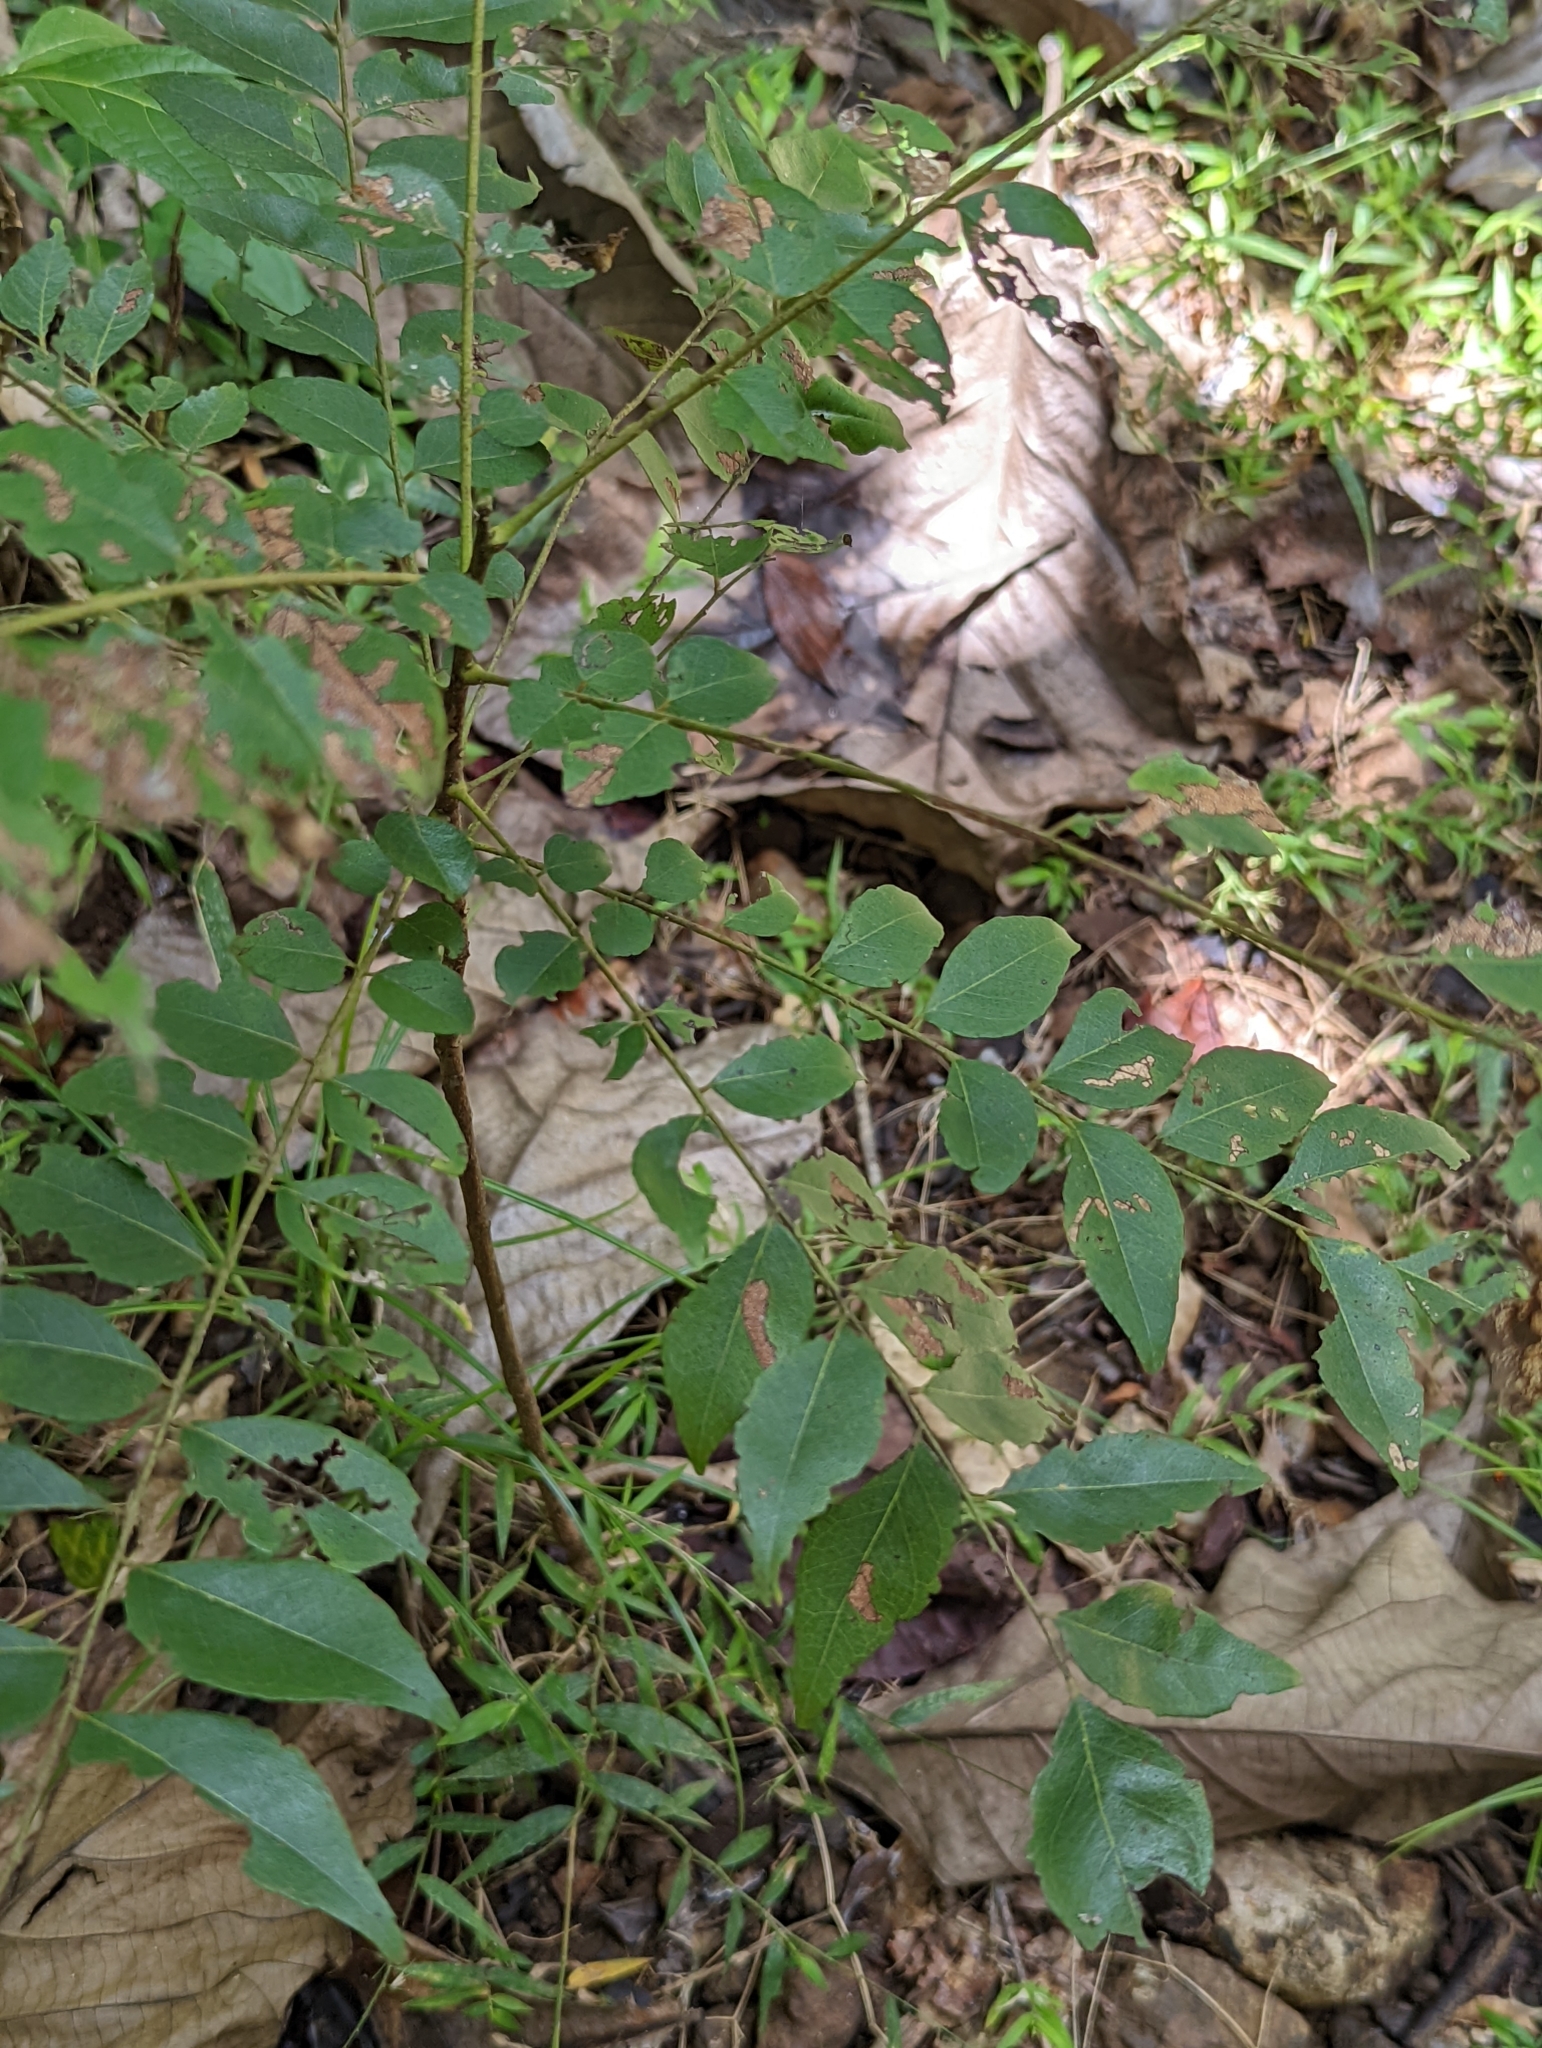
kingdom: Plantae
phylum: Tracheophyta
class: Magnoliopsida
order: Sapindales
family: Rutaceae
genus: Murraya
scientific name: Murraya koenigii
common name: Curry-plant
